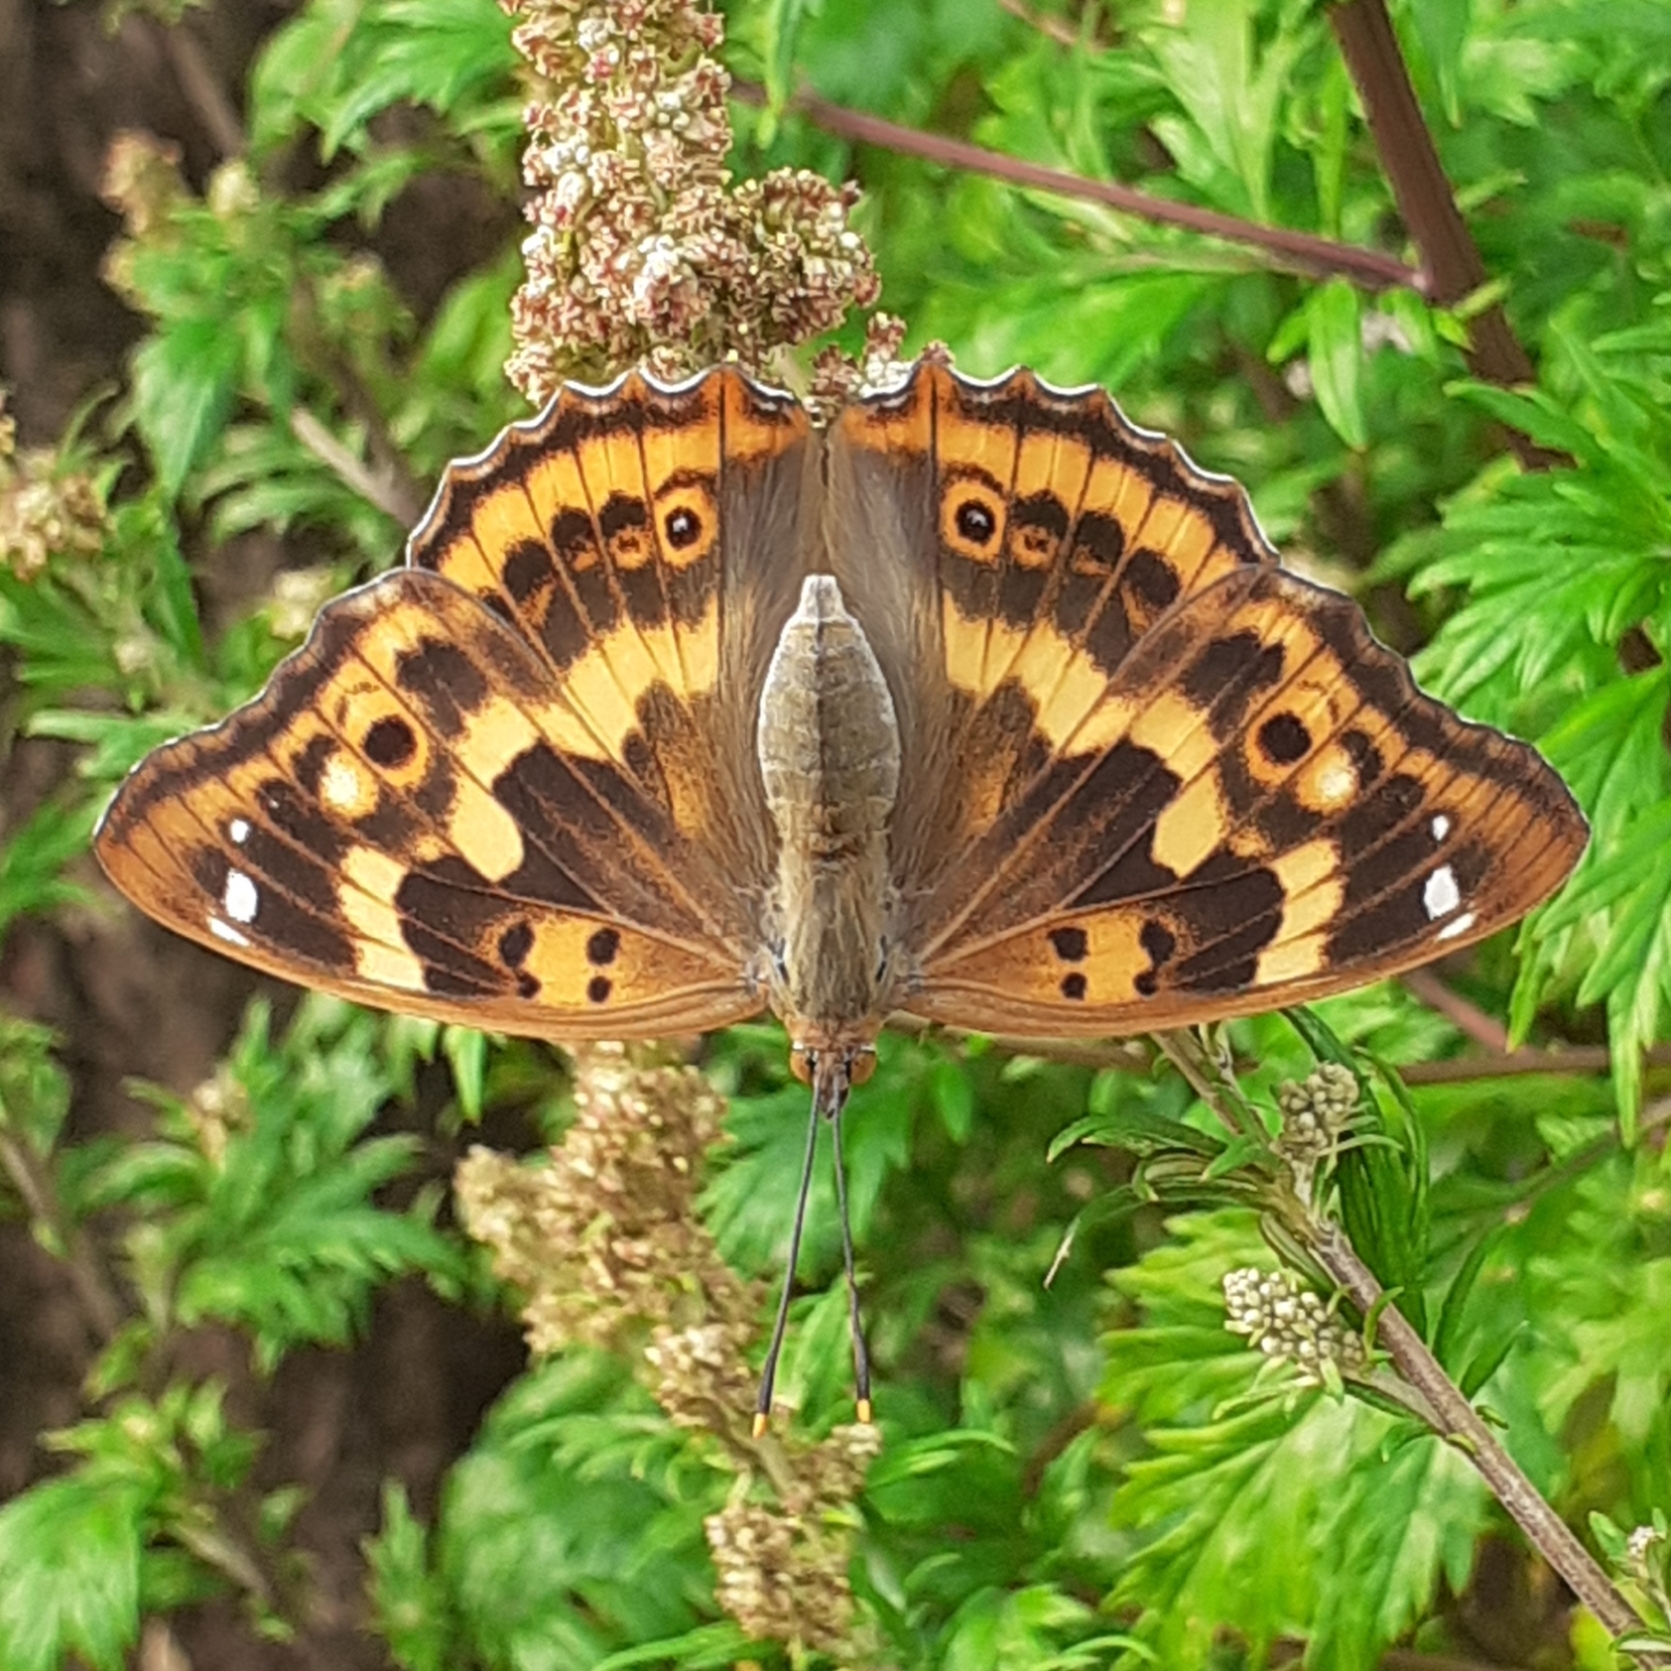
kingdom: Animalia
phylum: Arthropoda
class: Insecta
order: Lepidoptera
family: Nymphalidae
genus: Apatura
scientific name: Apatura ilia
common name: Lesser purple emperor
